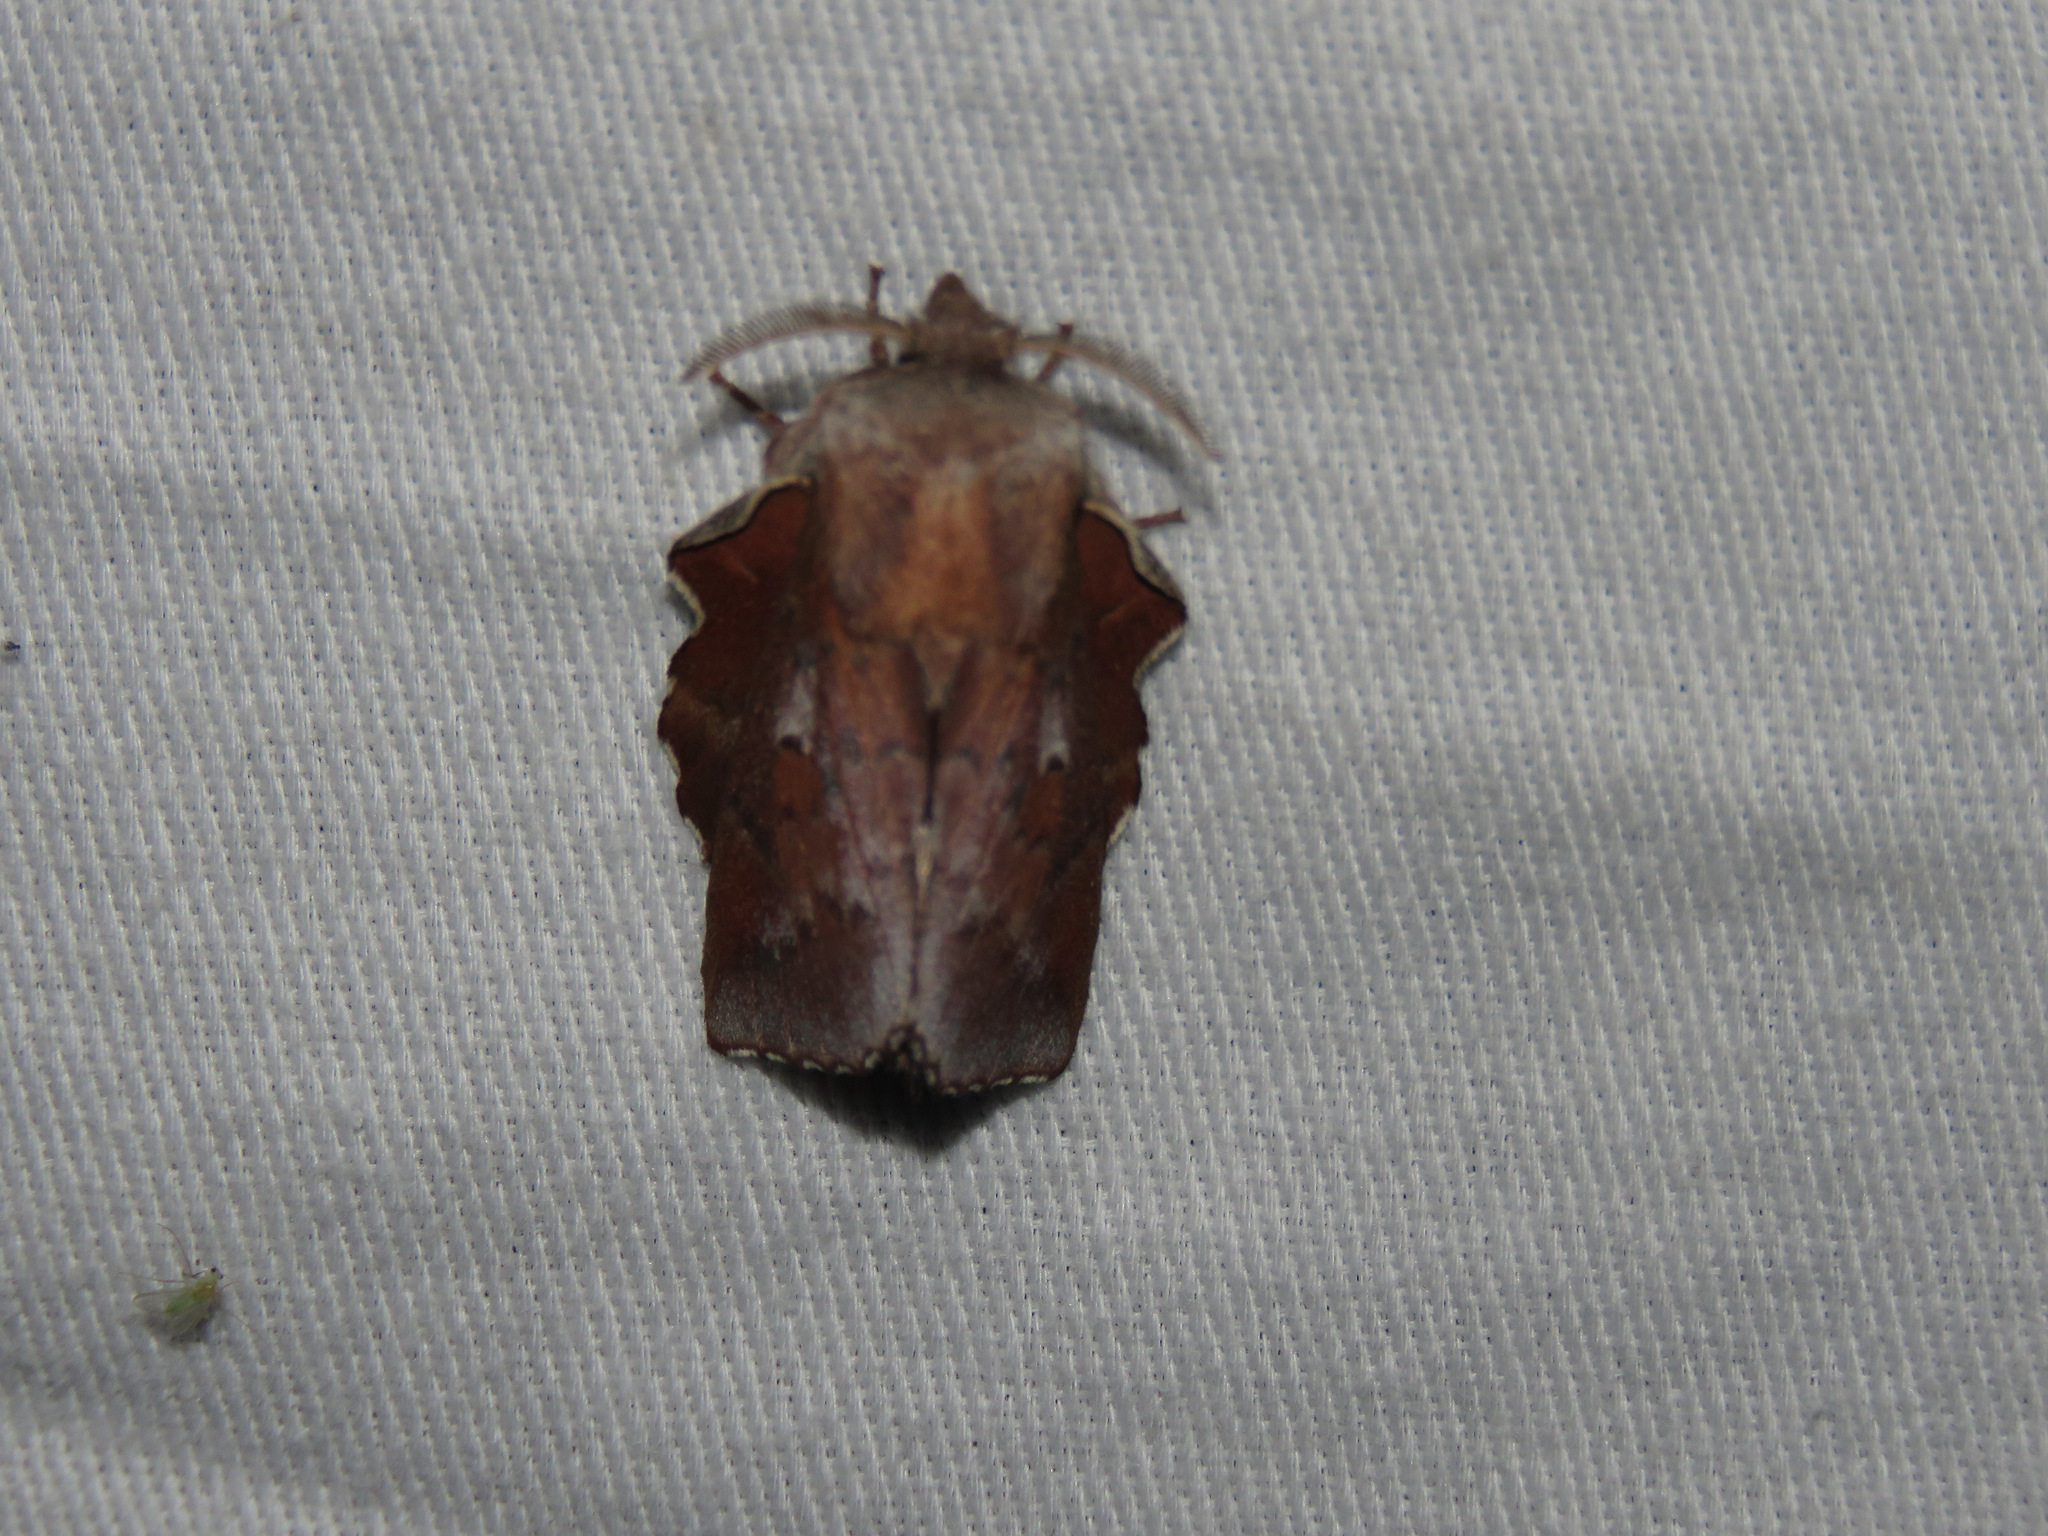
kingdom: Animalia
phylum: Arthropoda
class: Insecta
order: Lepidoptera
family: Lasiocampidae
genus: Phyllodesma
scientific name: Phyllodesma americana
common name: American lappet moth
